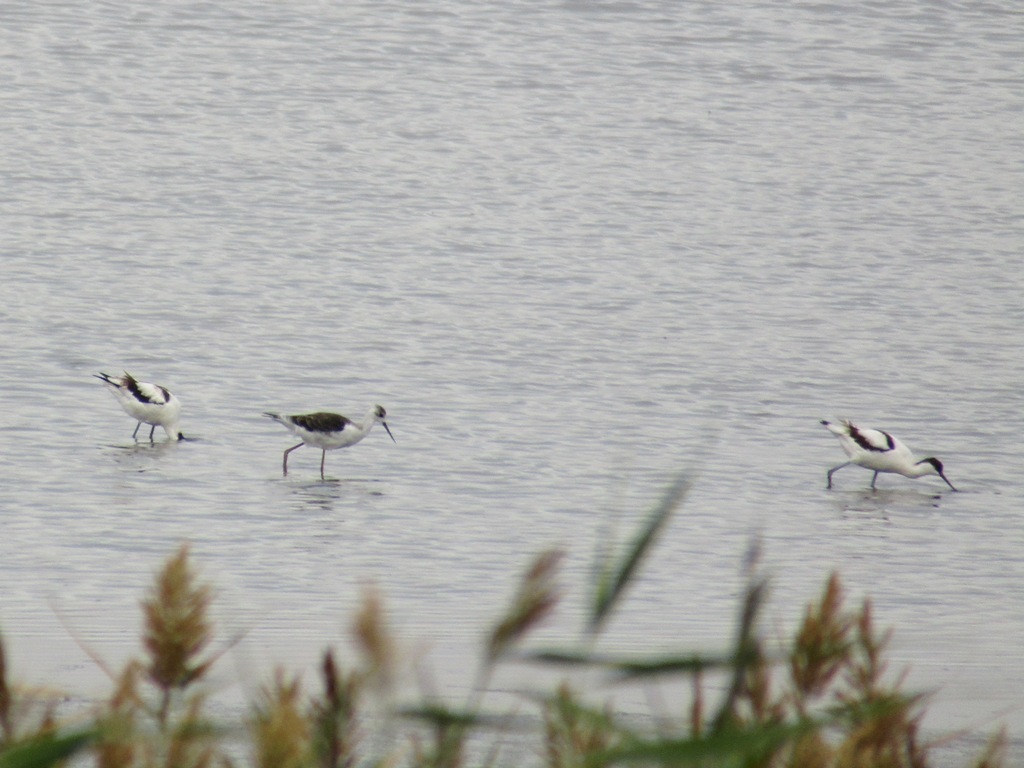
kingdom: Animalia
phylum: Chordata
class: Aves
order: Charadriiformes
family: Recurvirostridae
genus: Recurvirostra
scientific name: Recurvirostra avosetta
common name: Pied avocet
